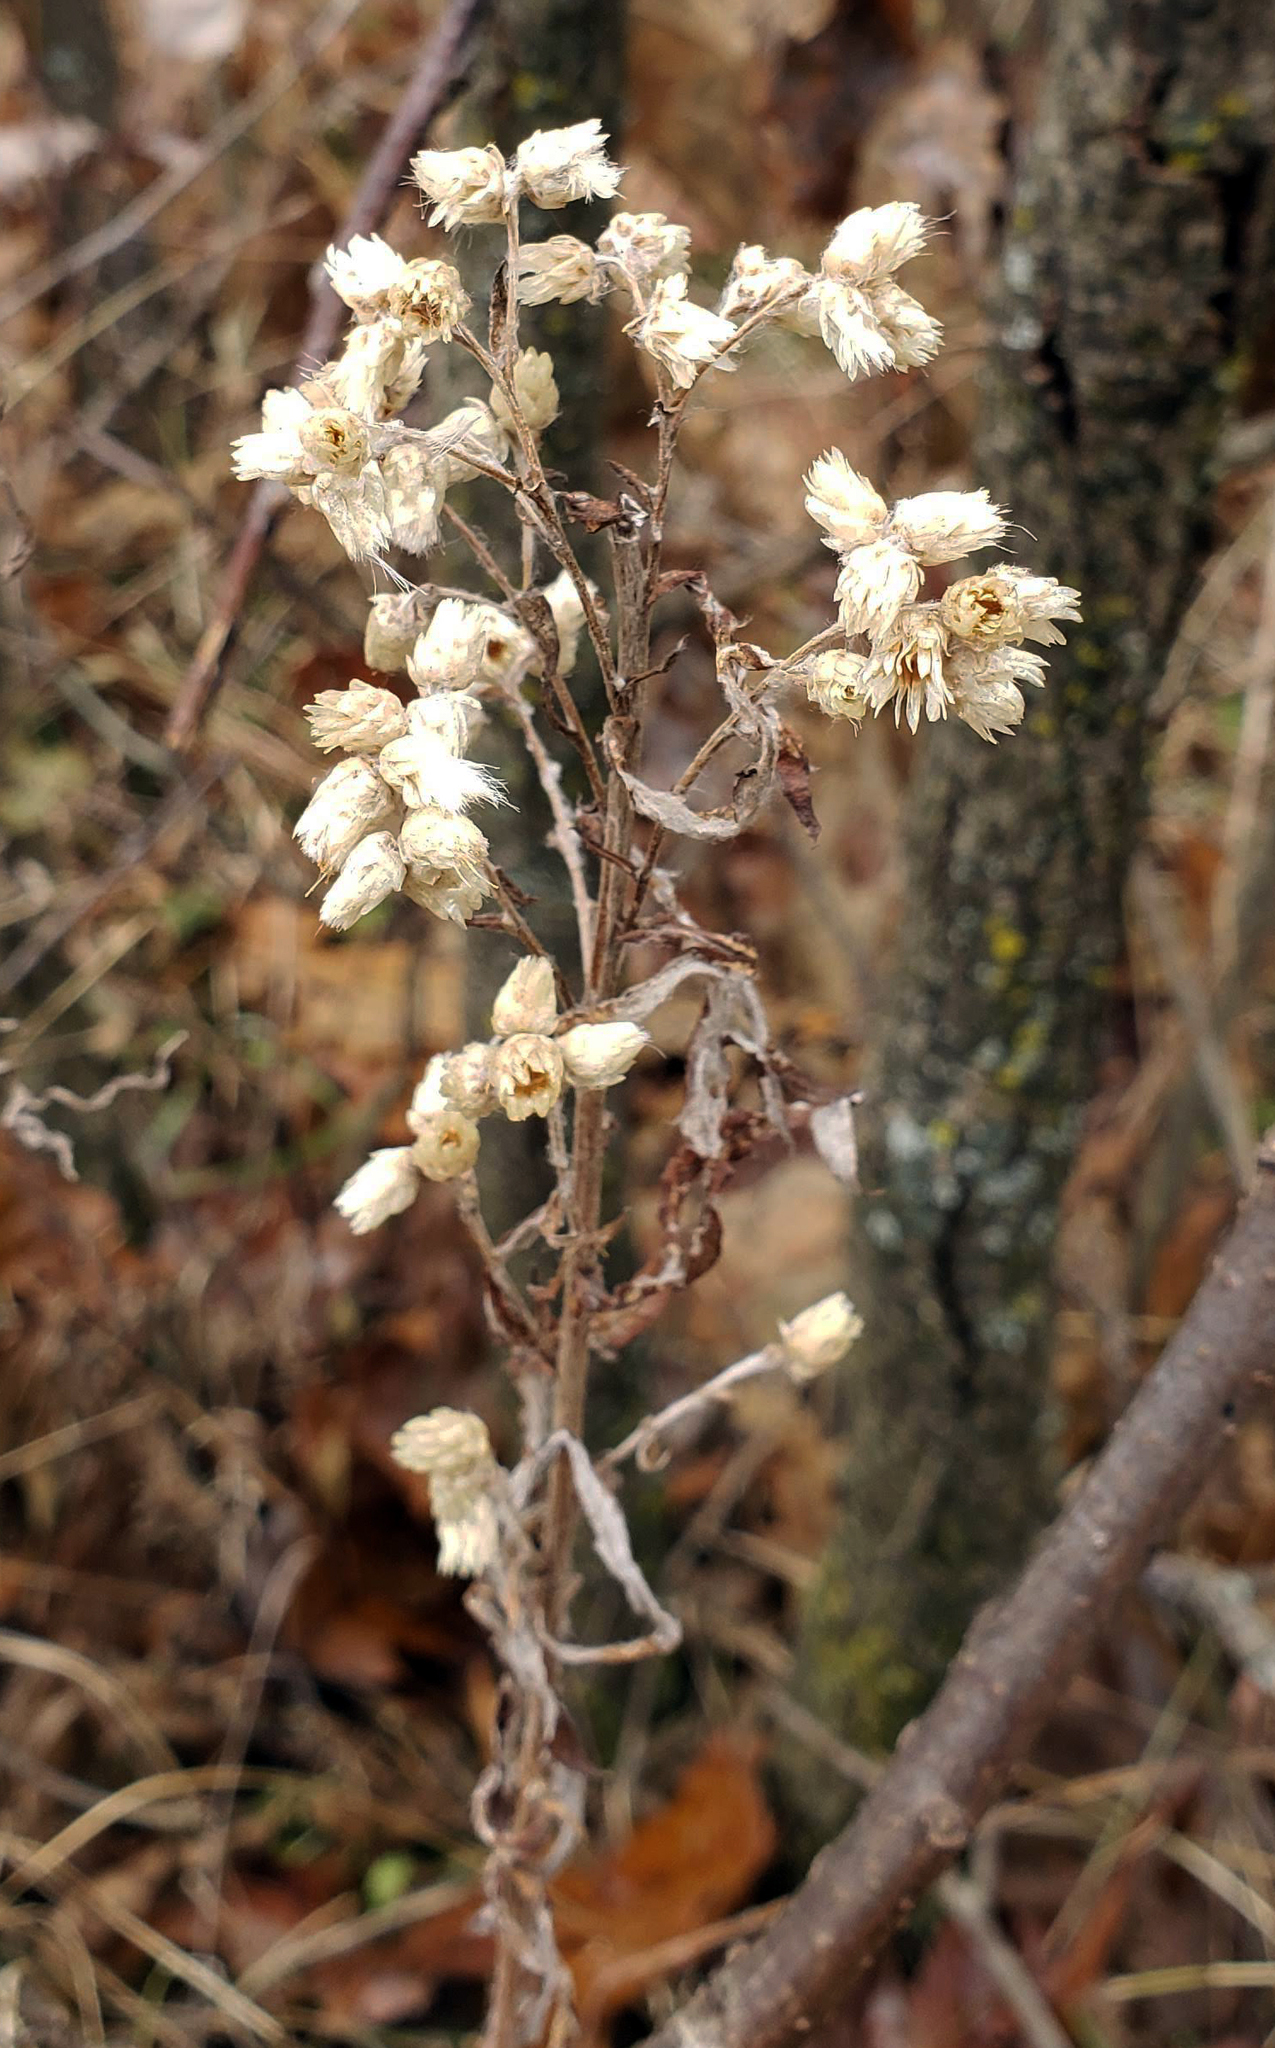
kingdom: Plantae
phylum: Tracheophyta
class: Magnoliopsida
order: Asterales
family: Asteraceae
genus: Pseudognaphalium
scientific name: Pseudognaphalium obtusifolium
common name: Eastern rabbit-tobacco
